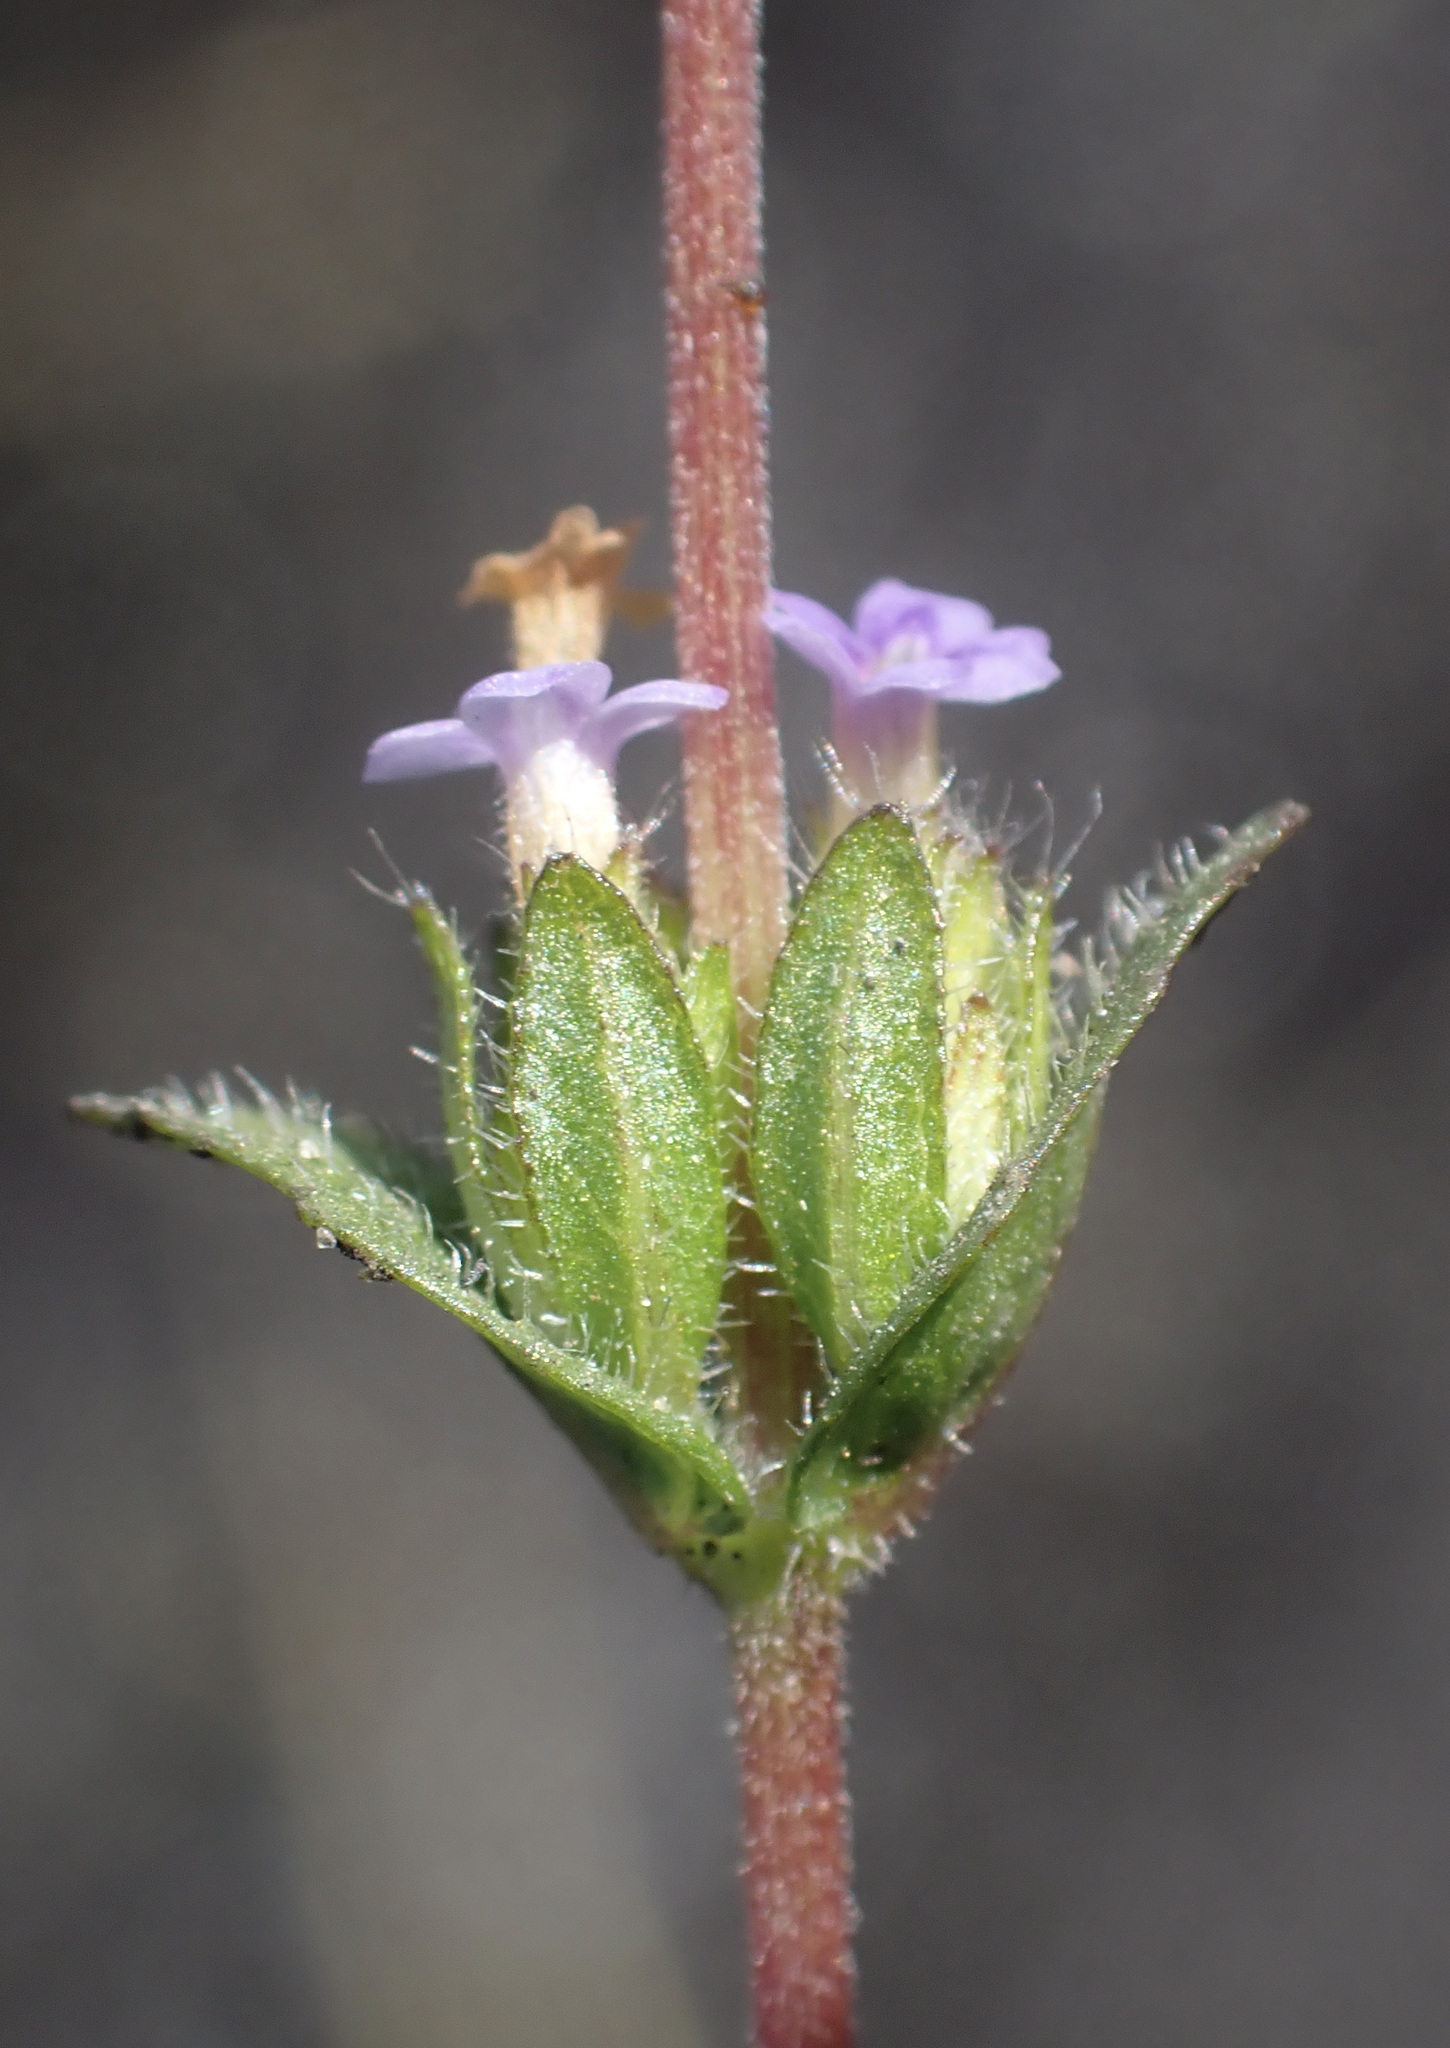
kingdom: Plantae
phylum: Tracheophyta
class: Magnoliopsida
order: Lamiales
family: Acanthaceae
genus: Hygrophila
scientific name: Hygrophila abyssinica
